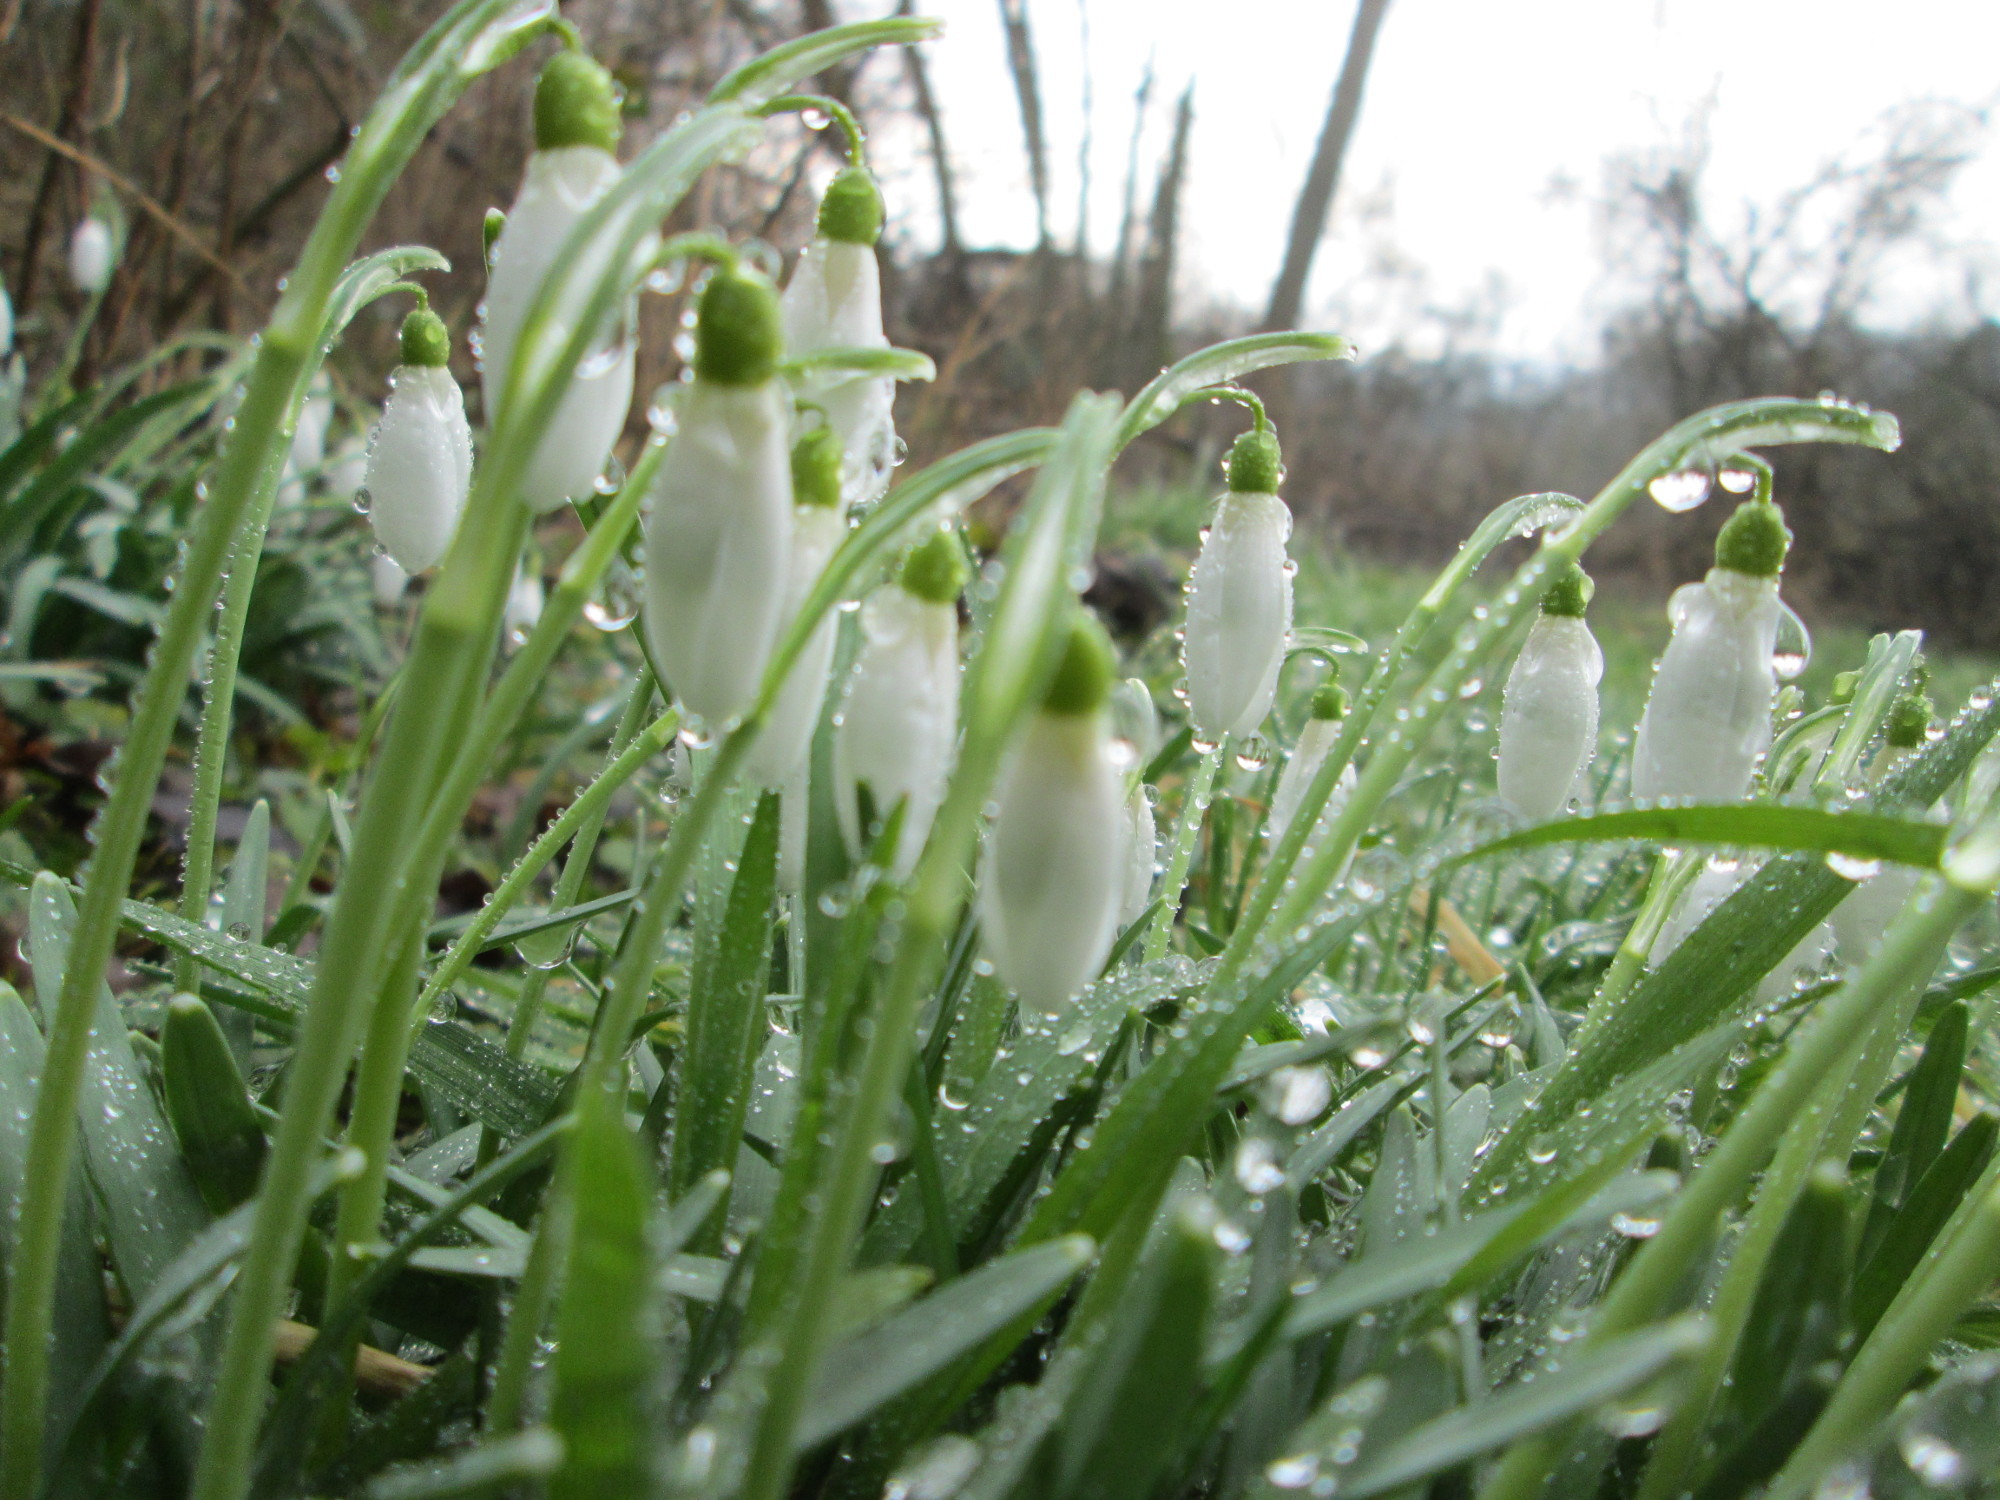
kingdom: Plantae
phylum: Tracheophyta
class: Liliopsida
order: Asparagales
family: Amaryllidaceae
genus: Galanthus
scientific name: Galanthus nivalis
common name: Snowdrop
